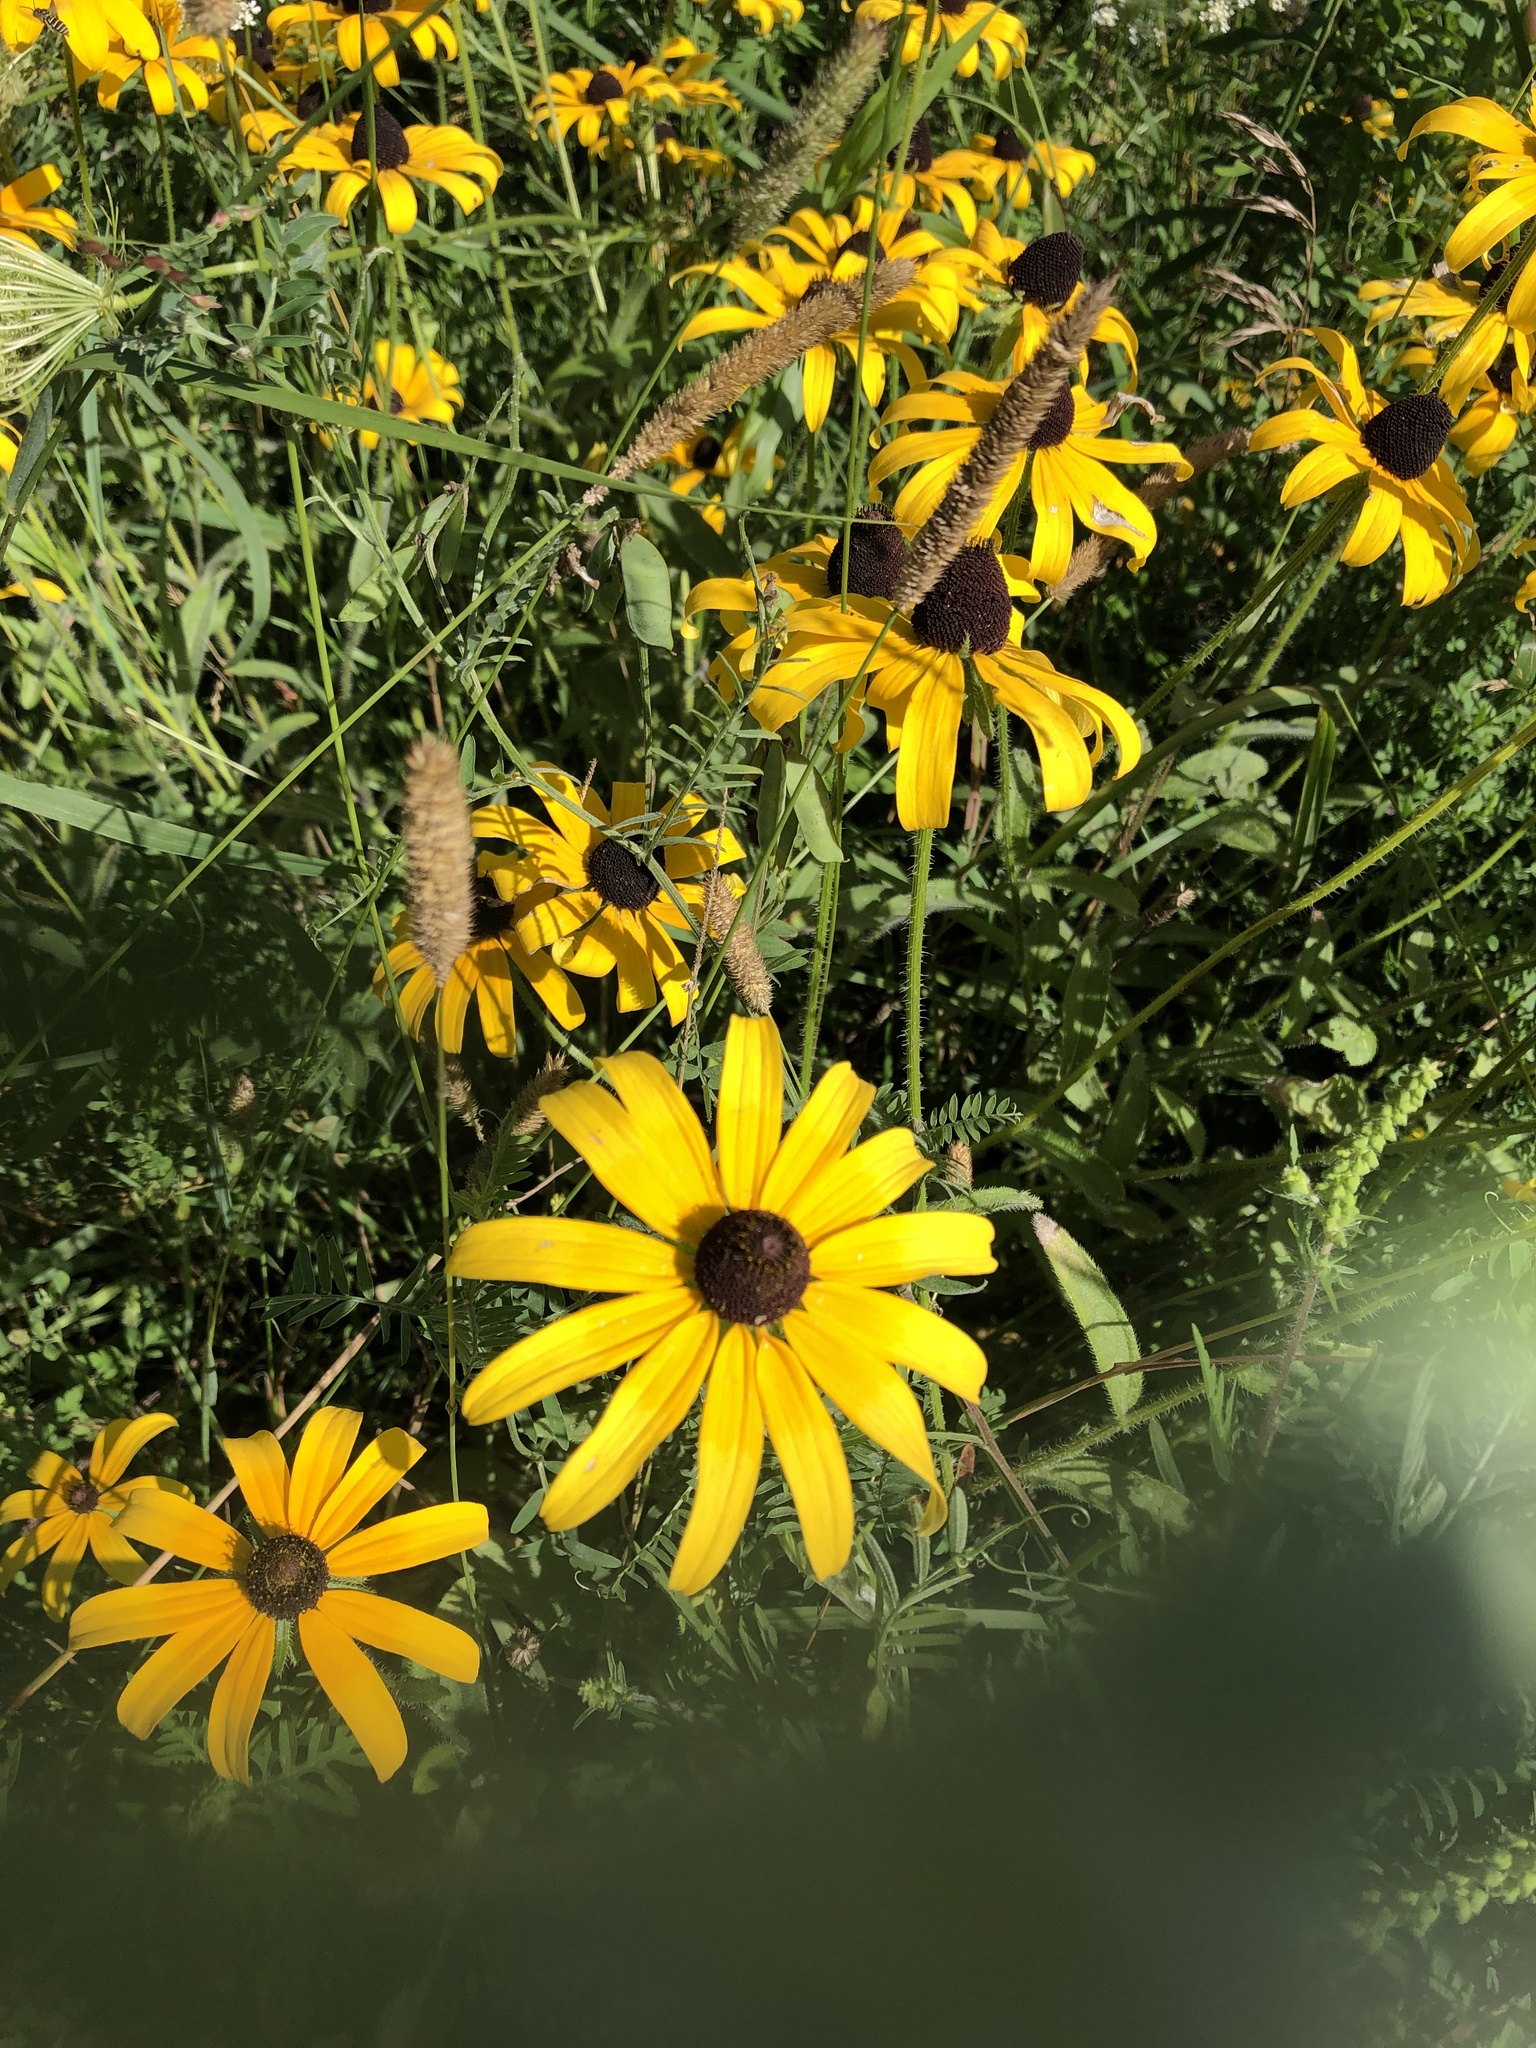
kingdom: Plantae
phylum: Tracheophyta
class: Magnoliopsida
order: Asterales
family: Asteraceae
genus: Rudbeckia
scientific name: Rudbeckia hirta
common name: Black-eyed-susan
